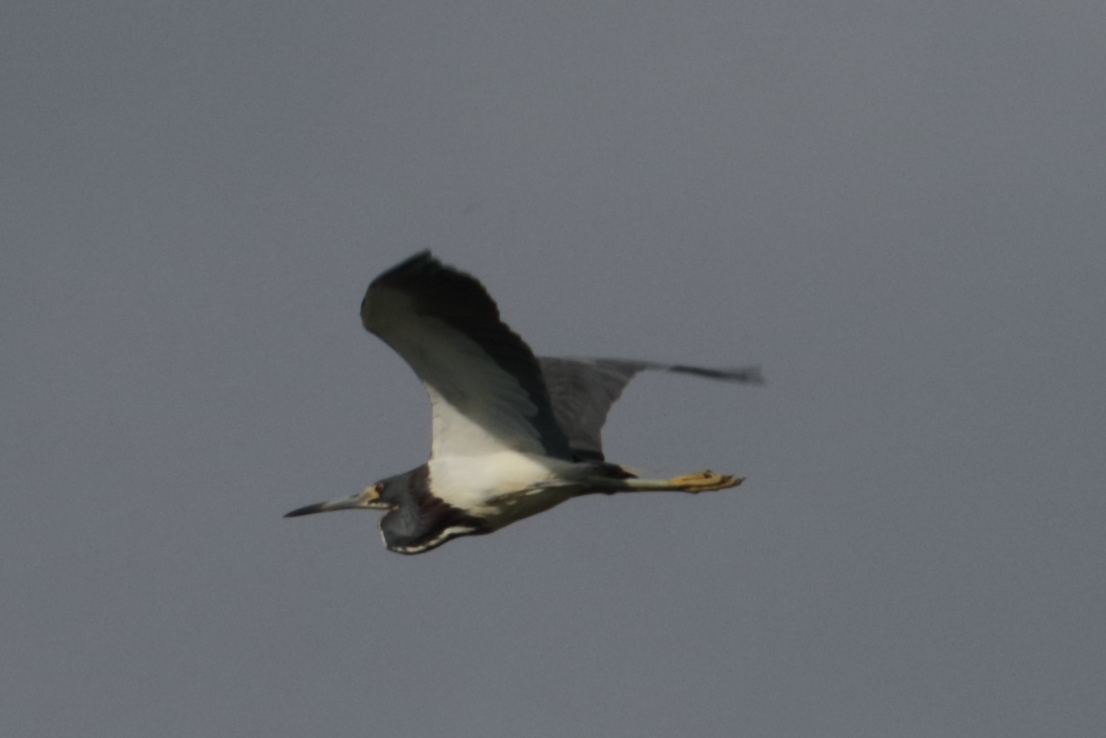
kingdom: Animalia
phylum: Chordata
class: Aves
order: Pelecaniformes
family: Ardeidae
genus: Egretta
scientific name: Egretta tricolor
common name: Tricolored heron
